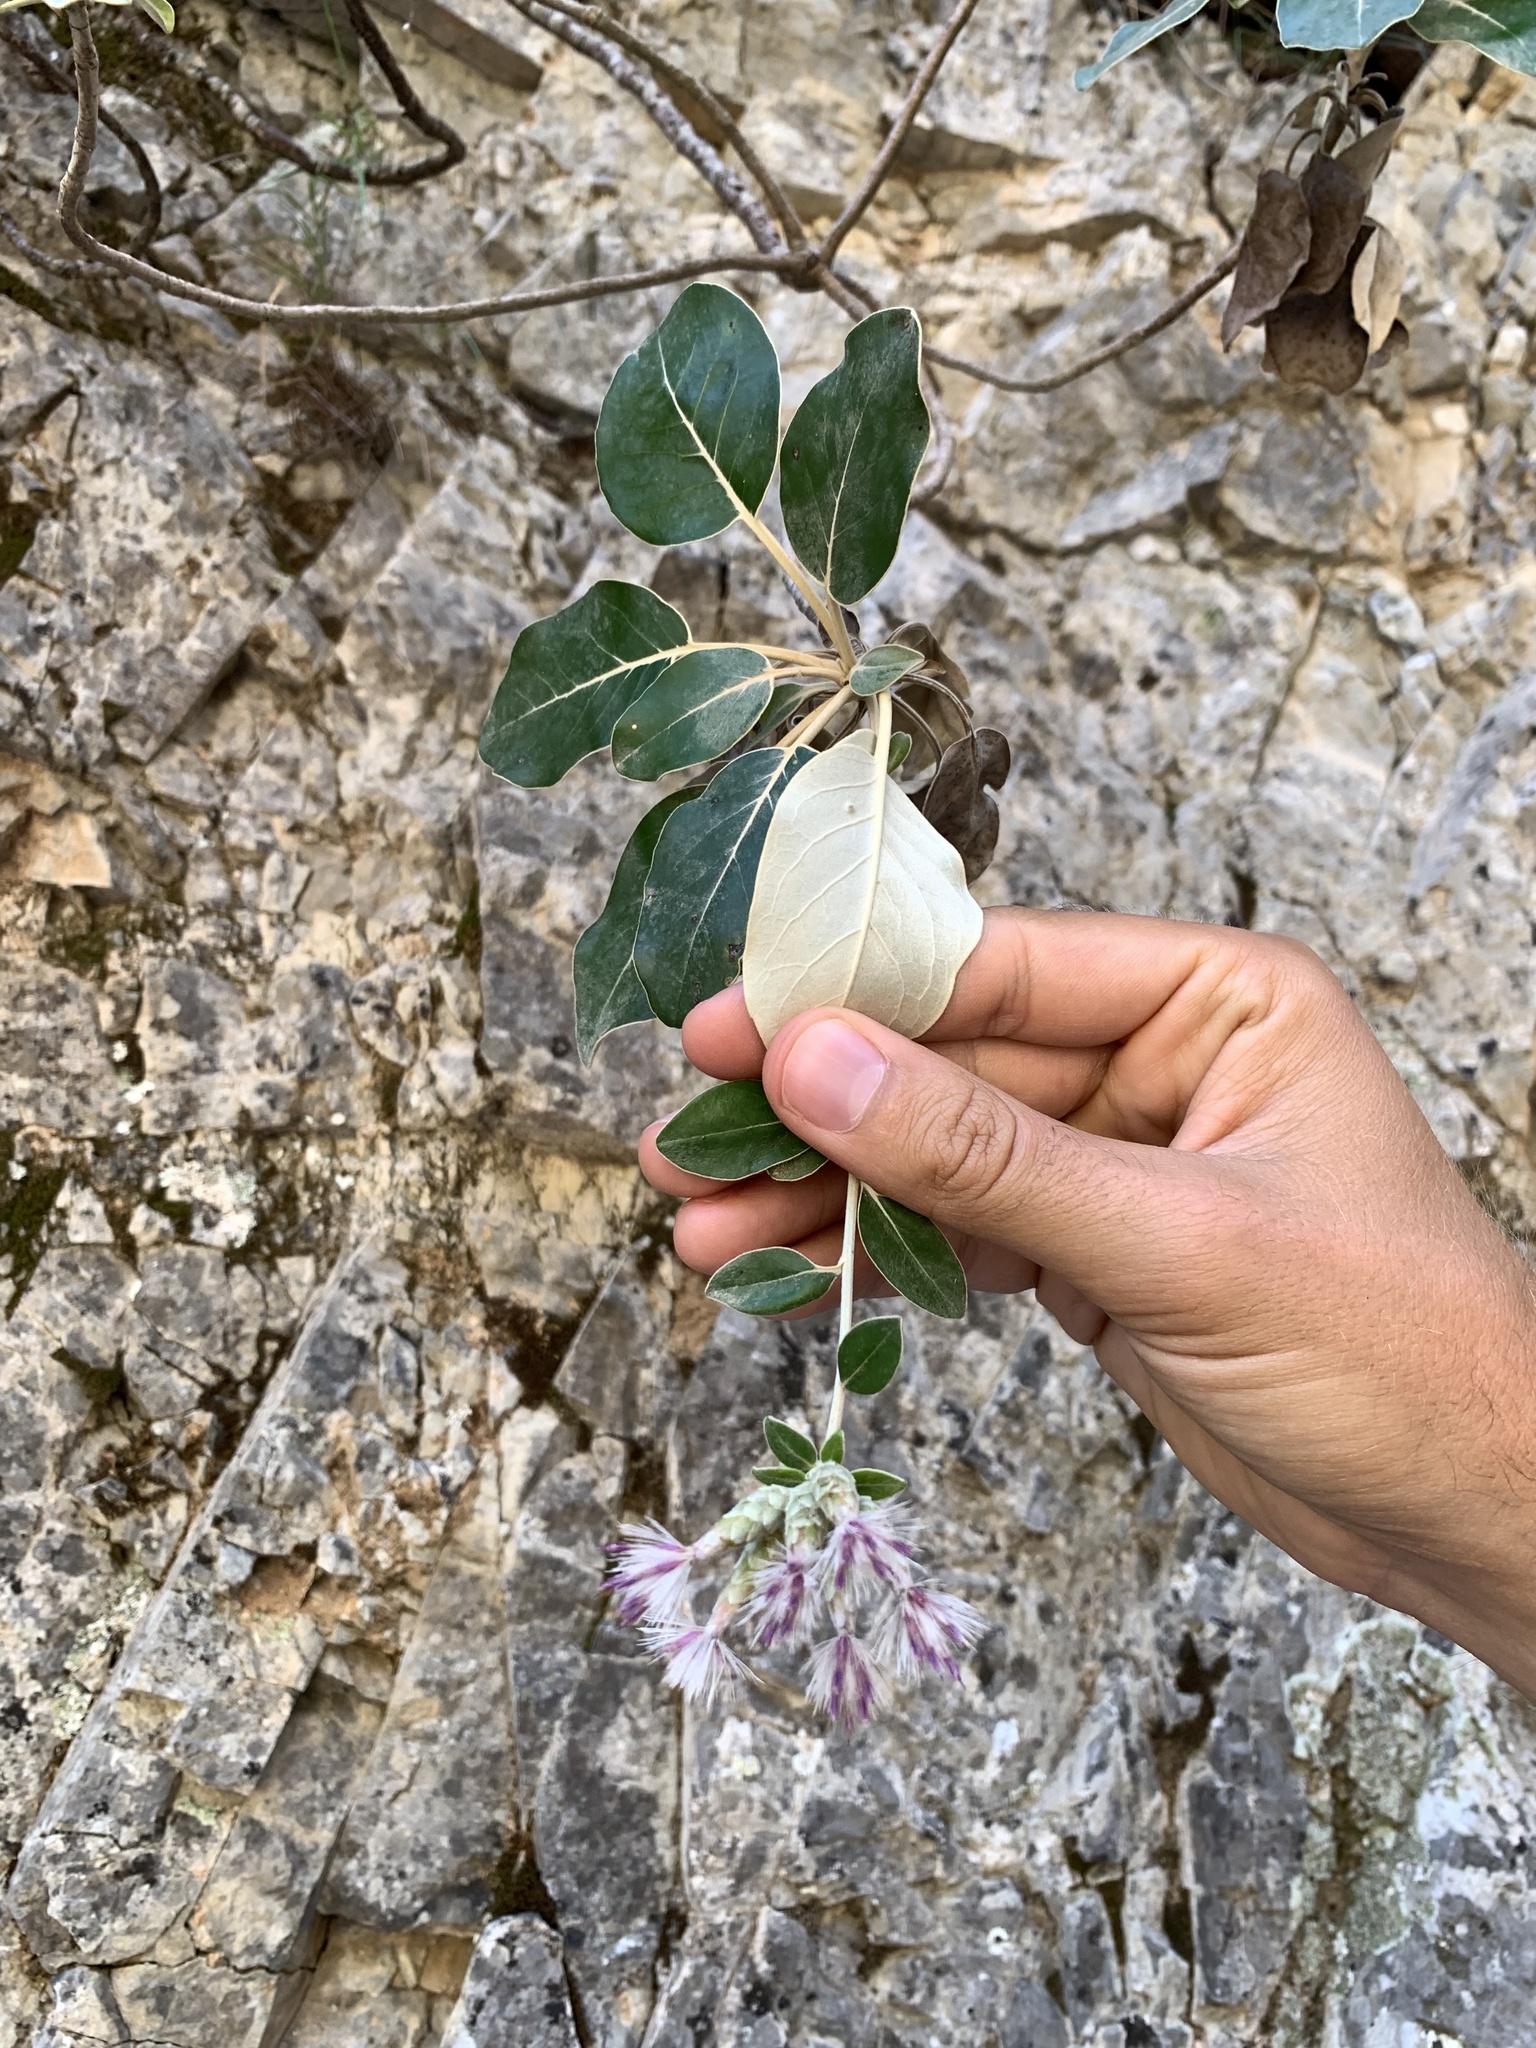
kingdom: Plantae
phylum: Tracheophyta
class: Magnoliopsida
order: Asterales
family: Asteraceae
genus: Staehelina
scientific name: Staehelina petiolata
